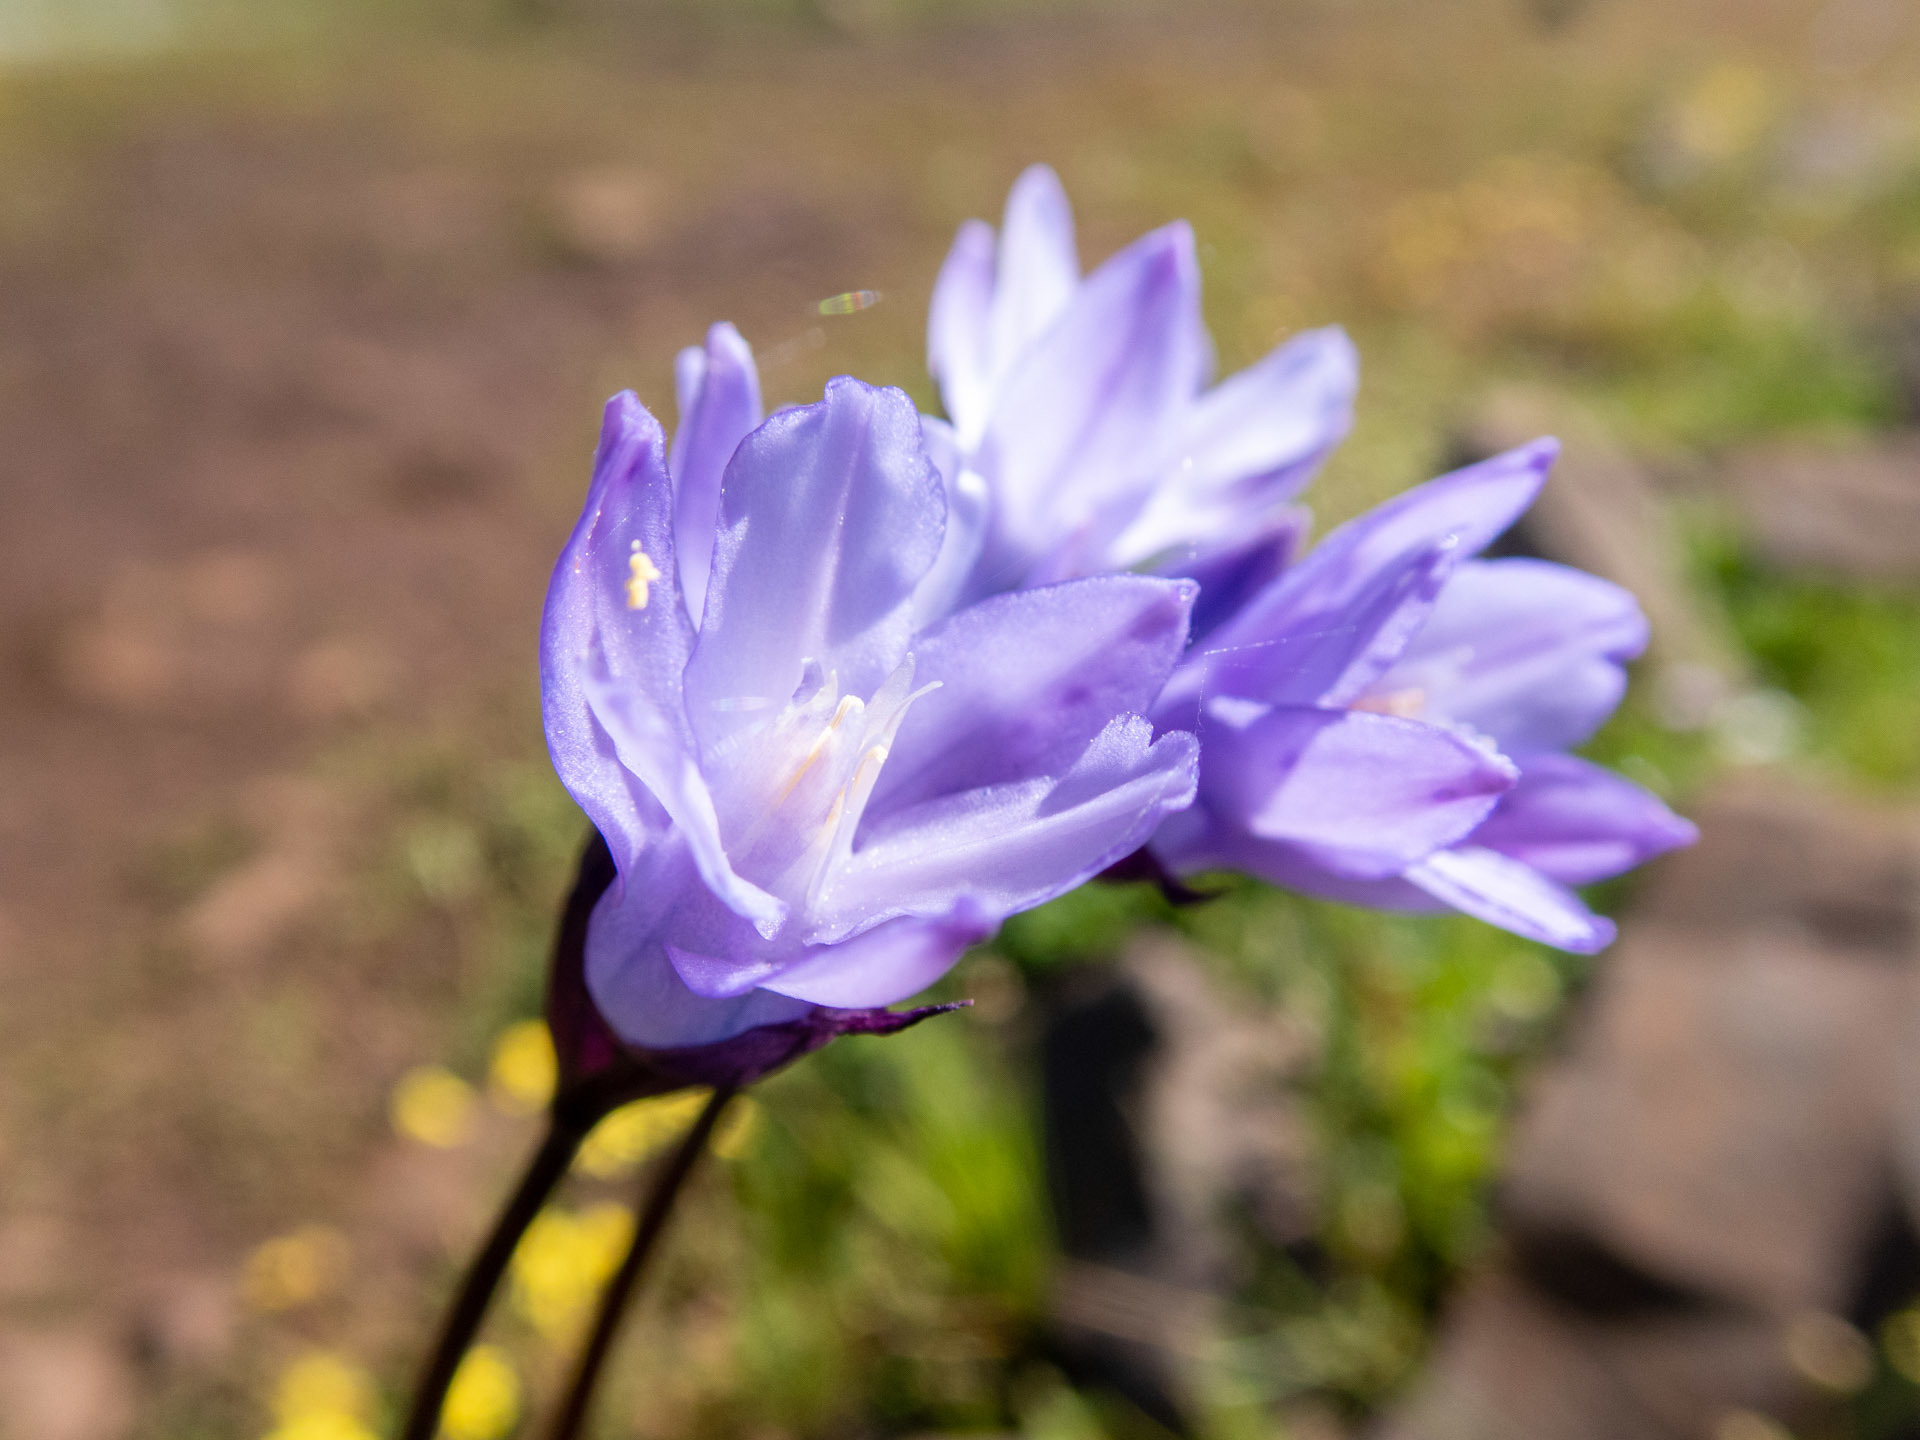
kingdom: Plantae
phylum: Tracheophyta
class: Liliopsida
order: Asparagales
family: Asparagaceae
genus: Dipterostemon
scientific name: Dipterostemon capitatus
